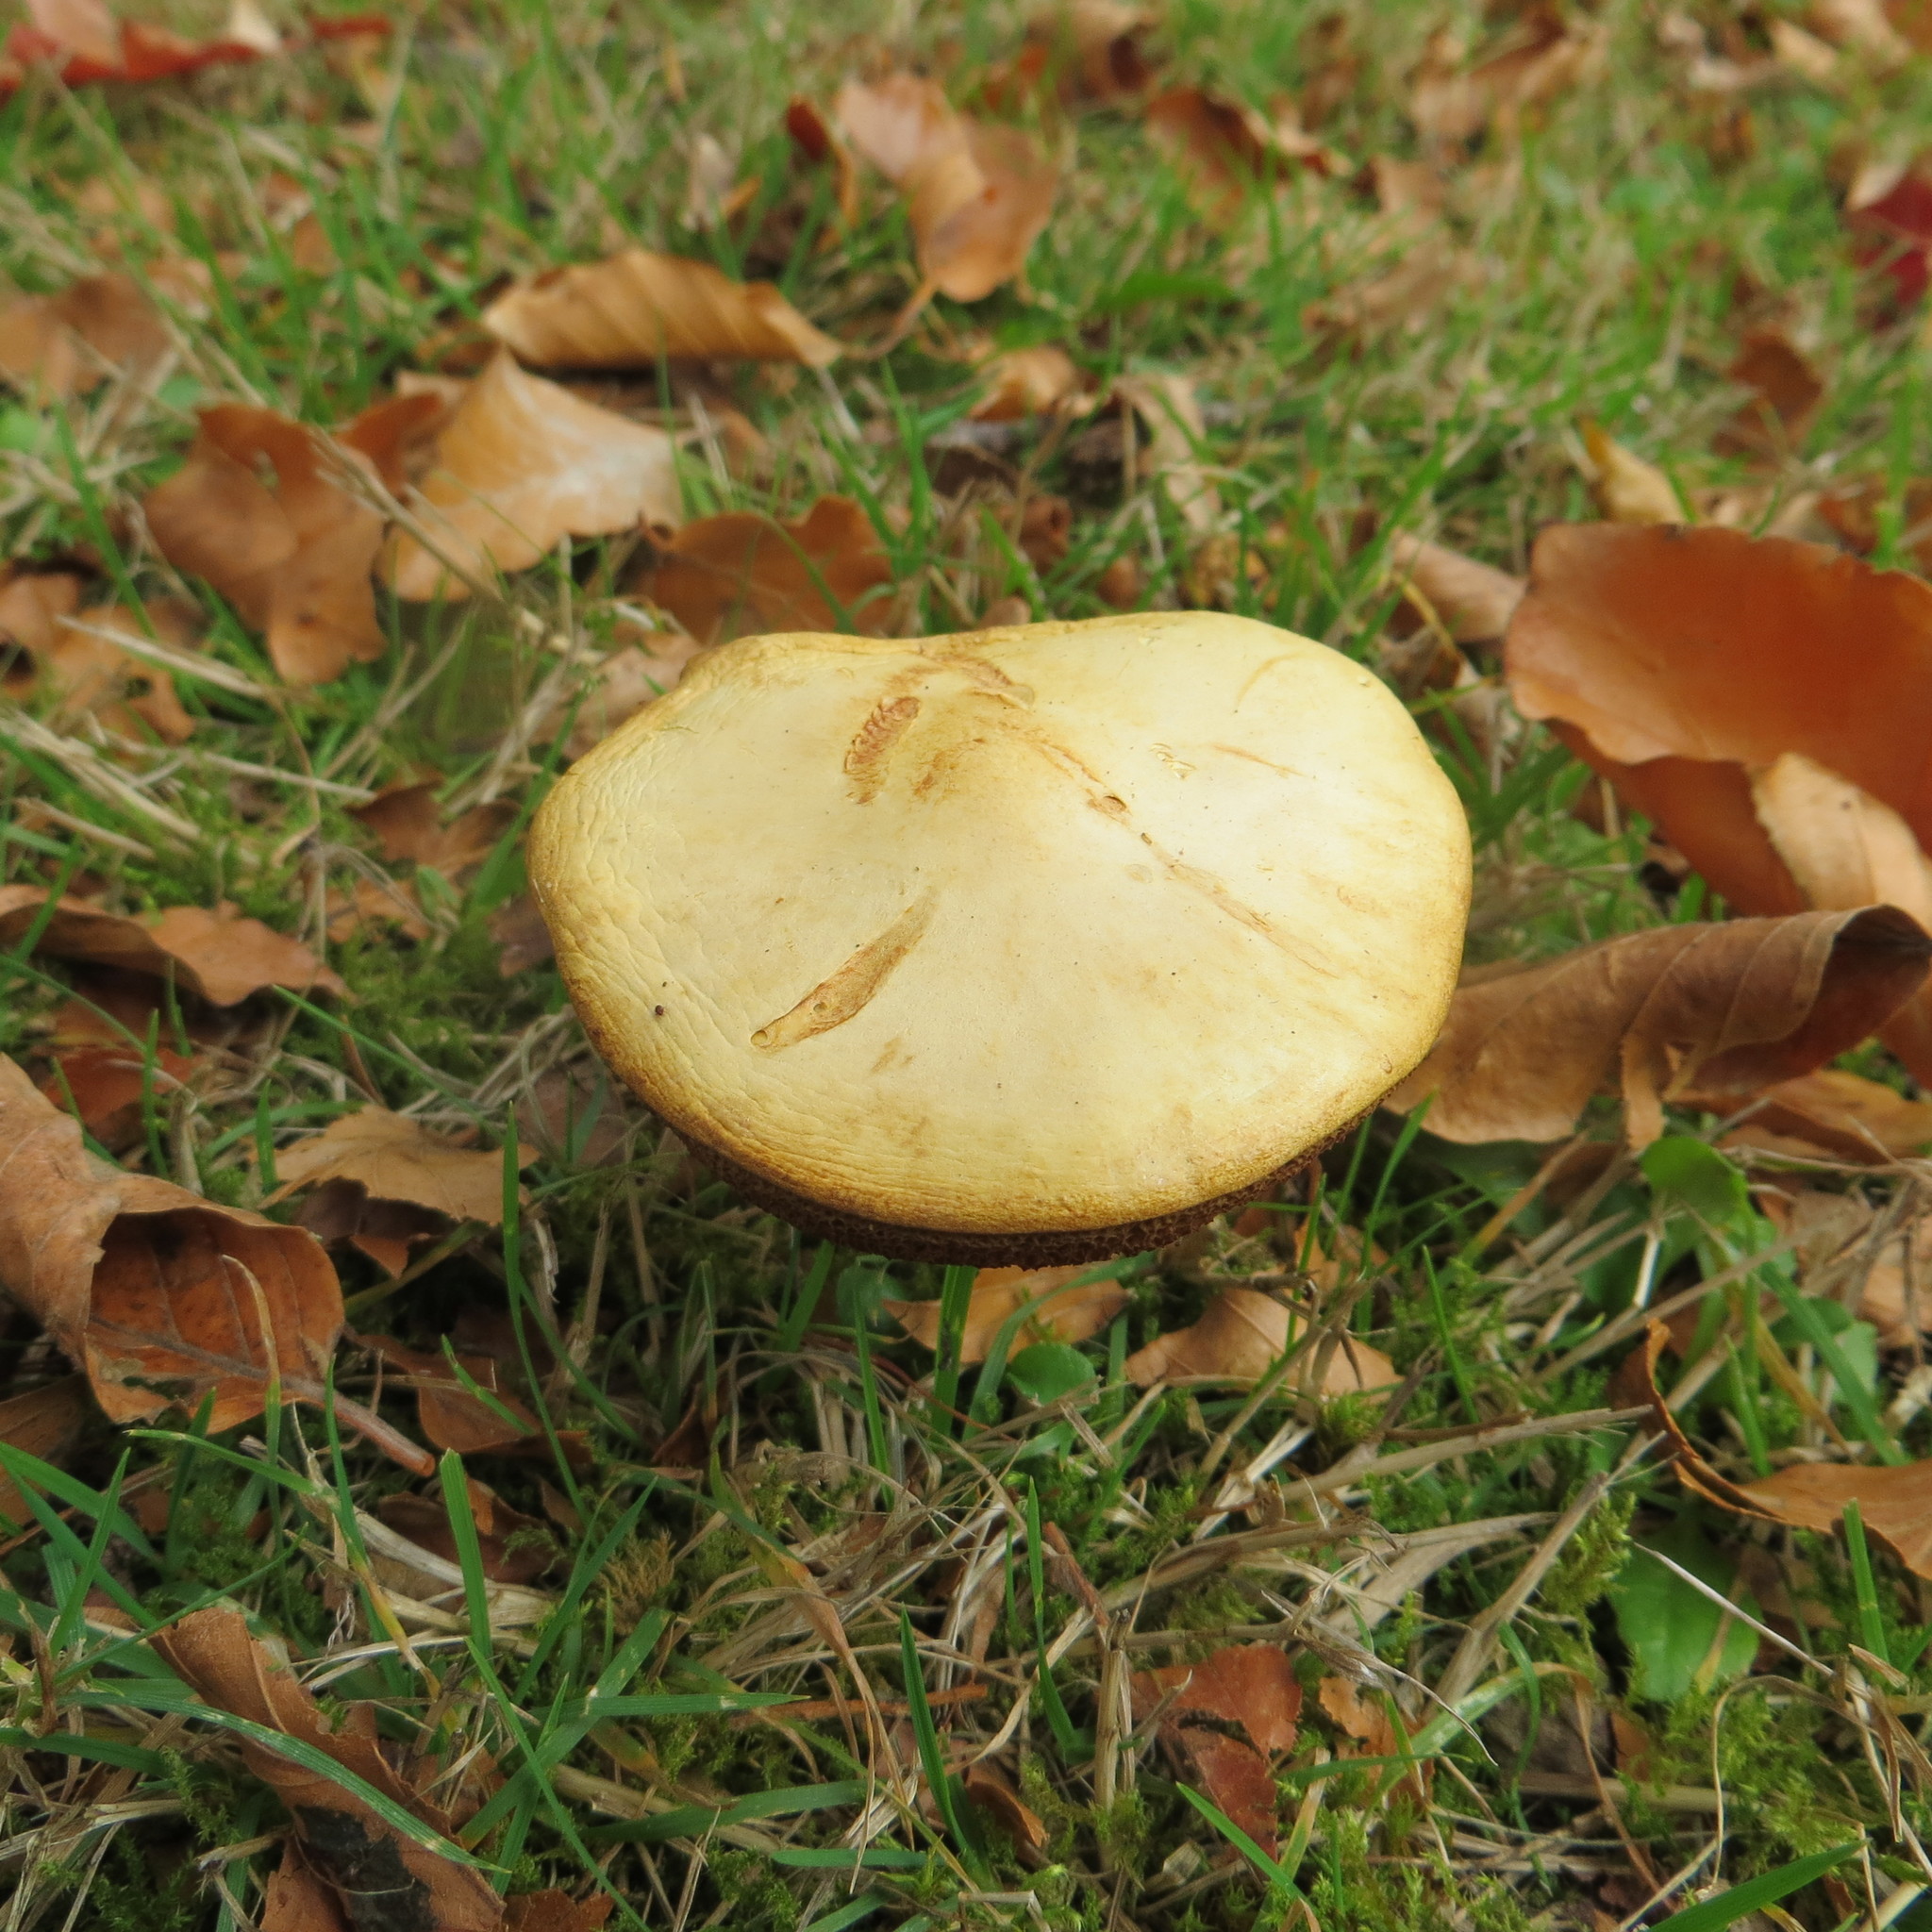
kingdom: Fungi
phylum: Basidiomycota
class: Agaricomycetes
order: Boletales
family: Boletaceae
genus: Chalciporus
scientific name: Chalciporus piperatus
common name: Peppery bolete
